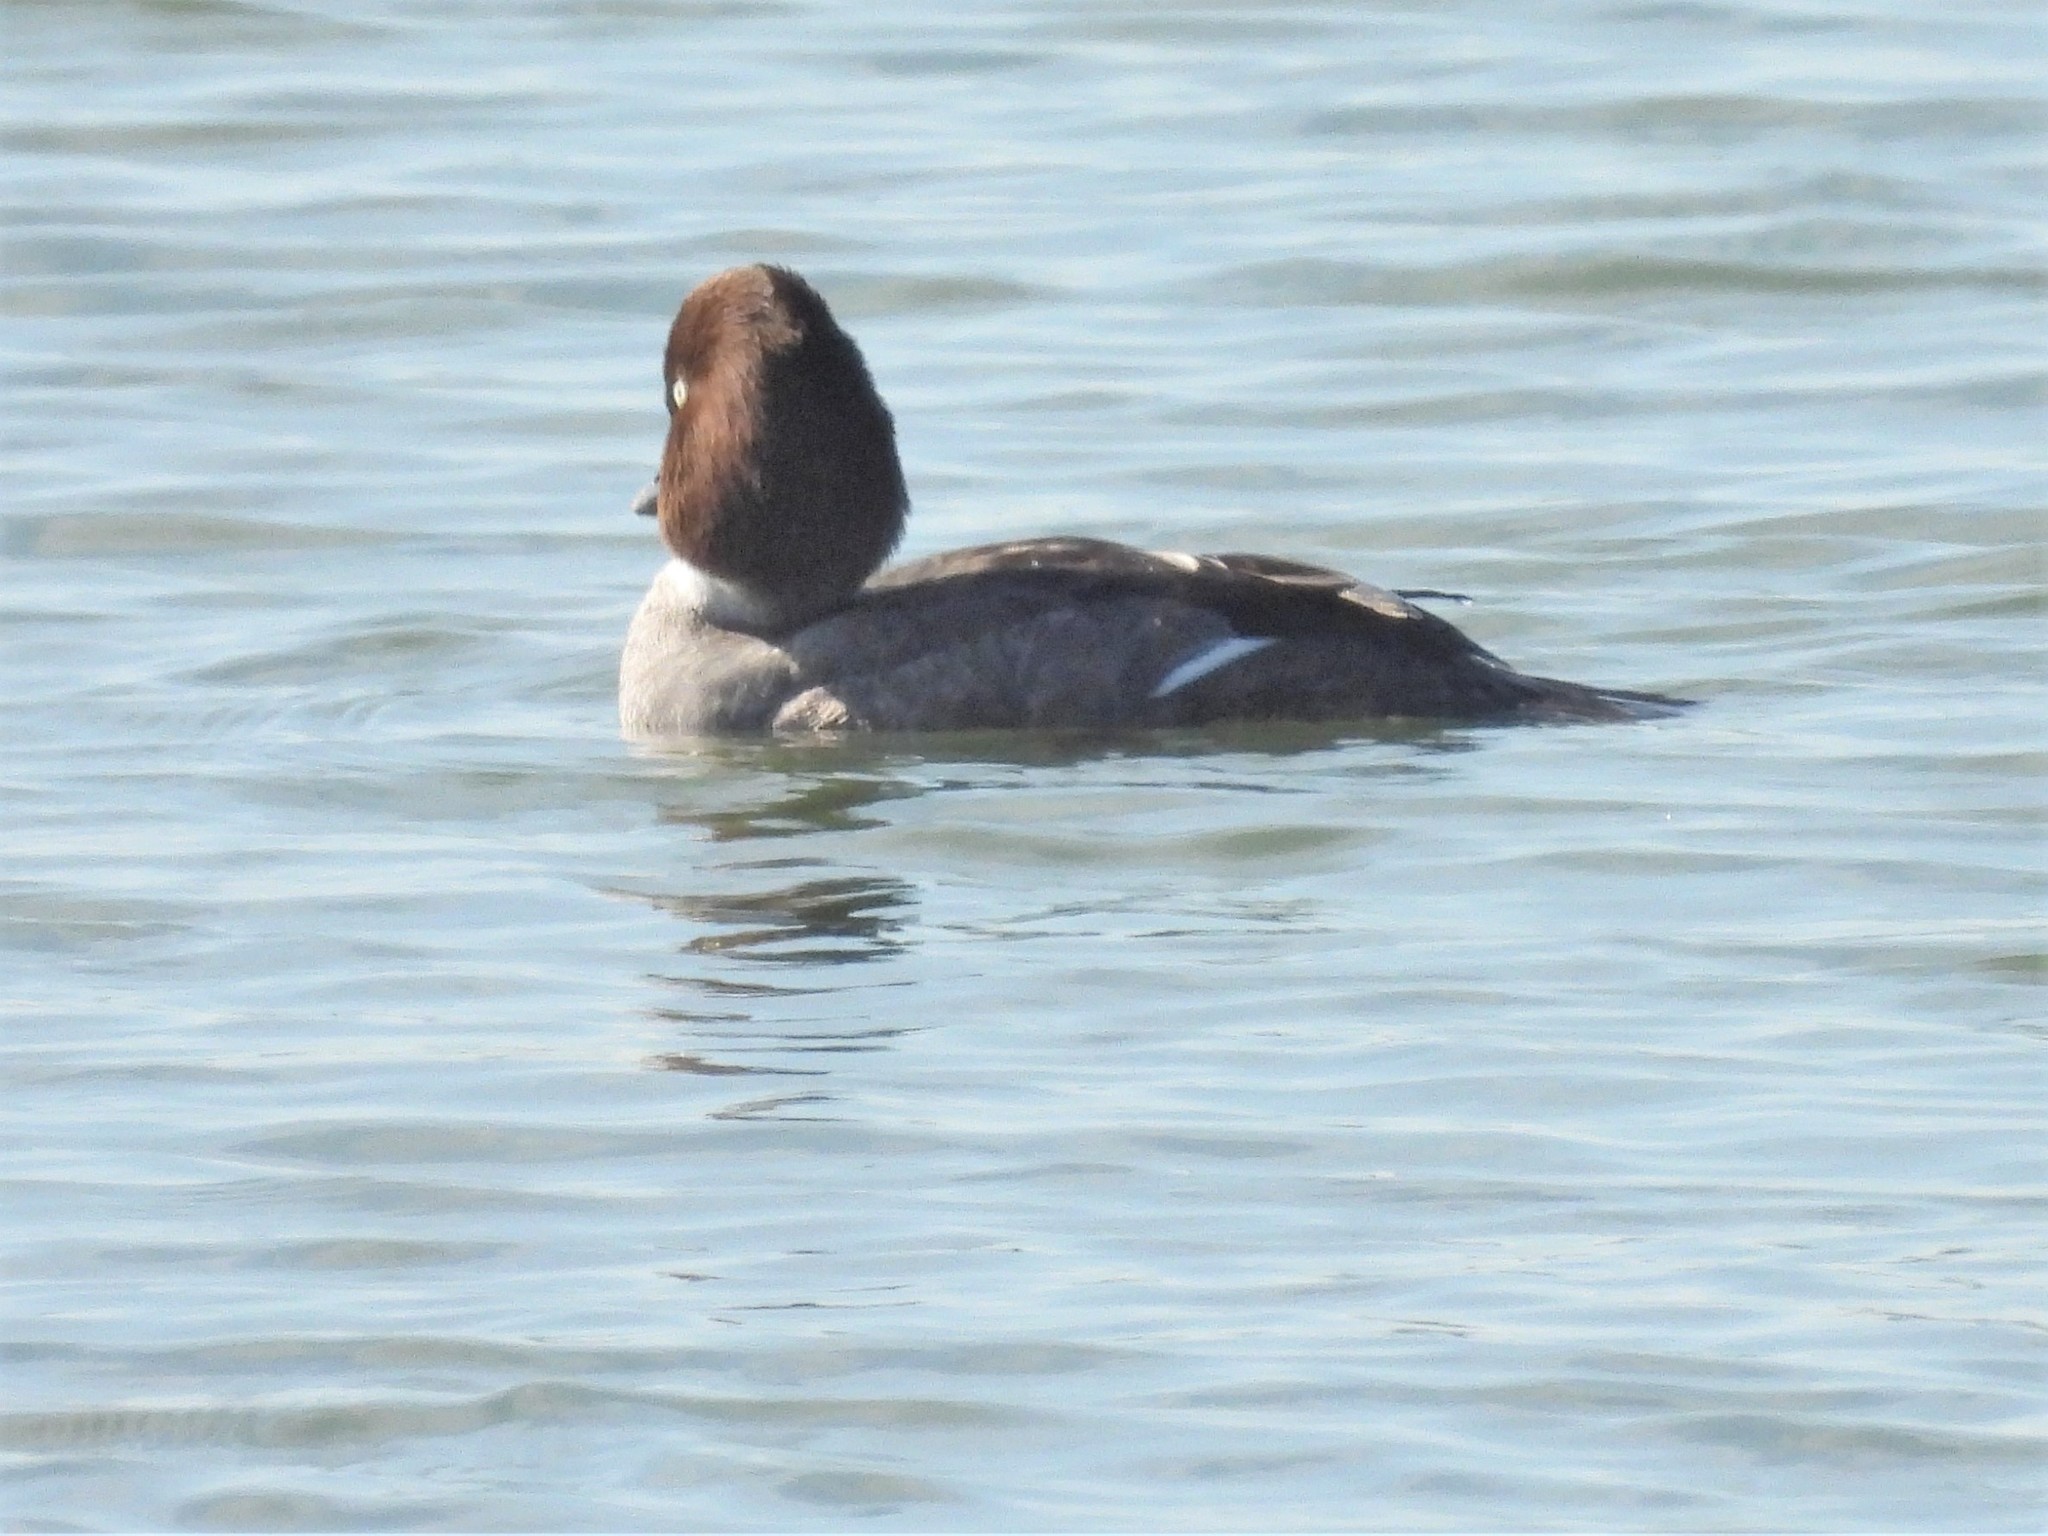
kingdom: Animalia
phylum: Chordata
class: Aves
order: Anseriformes
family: Anatidae
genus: Bucephala
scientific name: Bucephala clangula
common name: Common goldeneye
